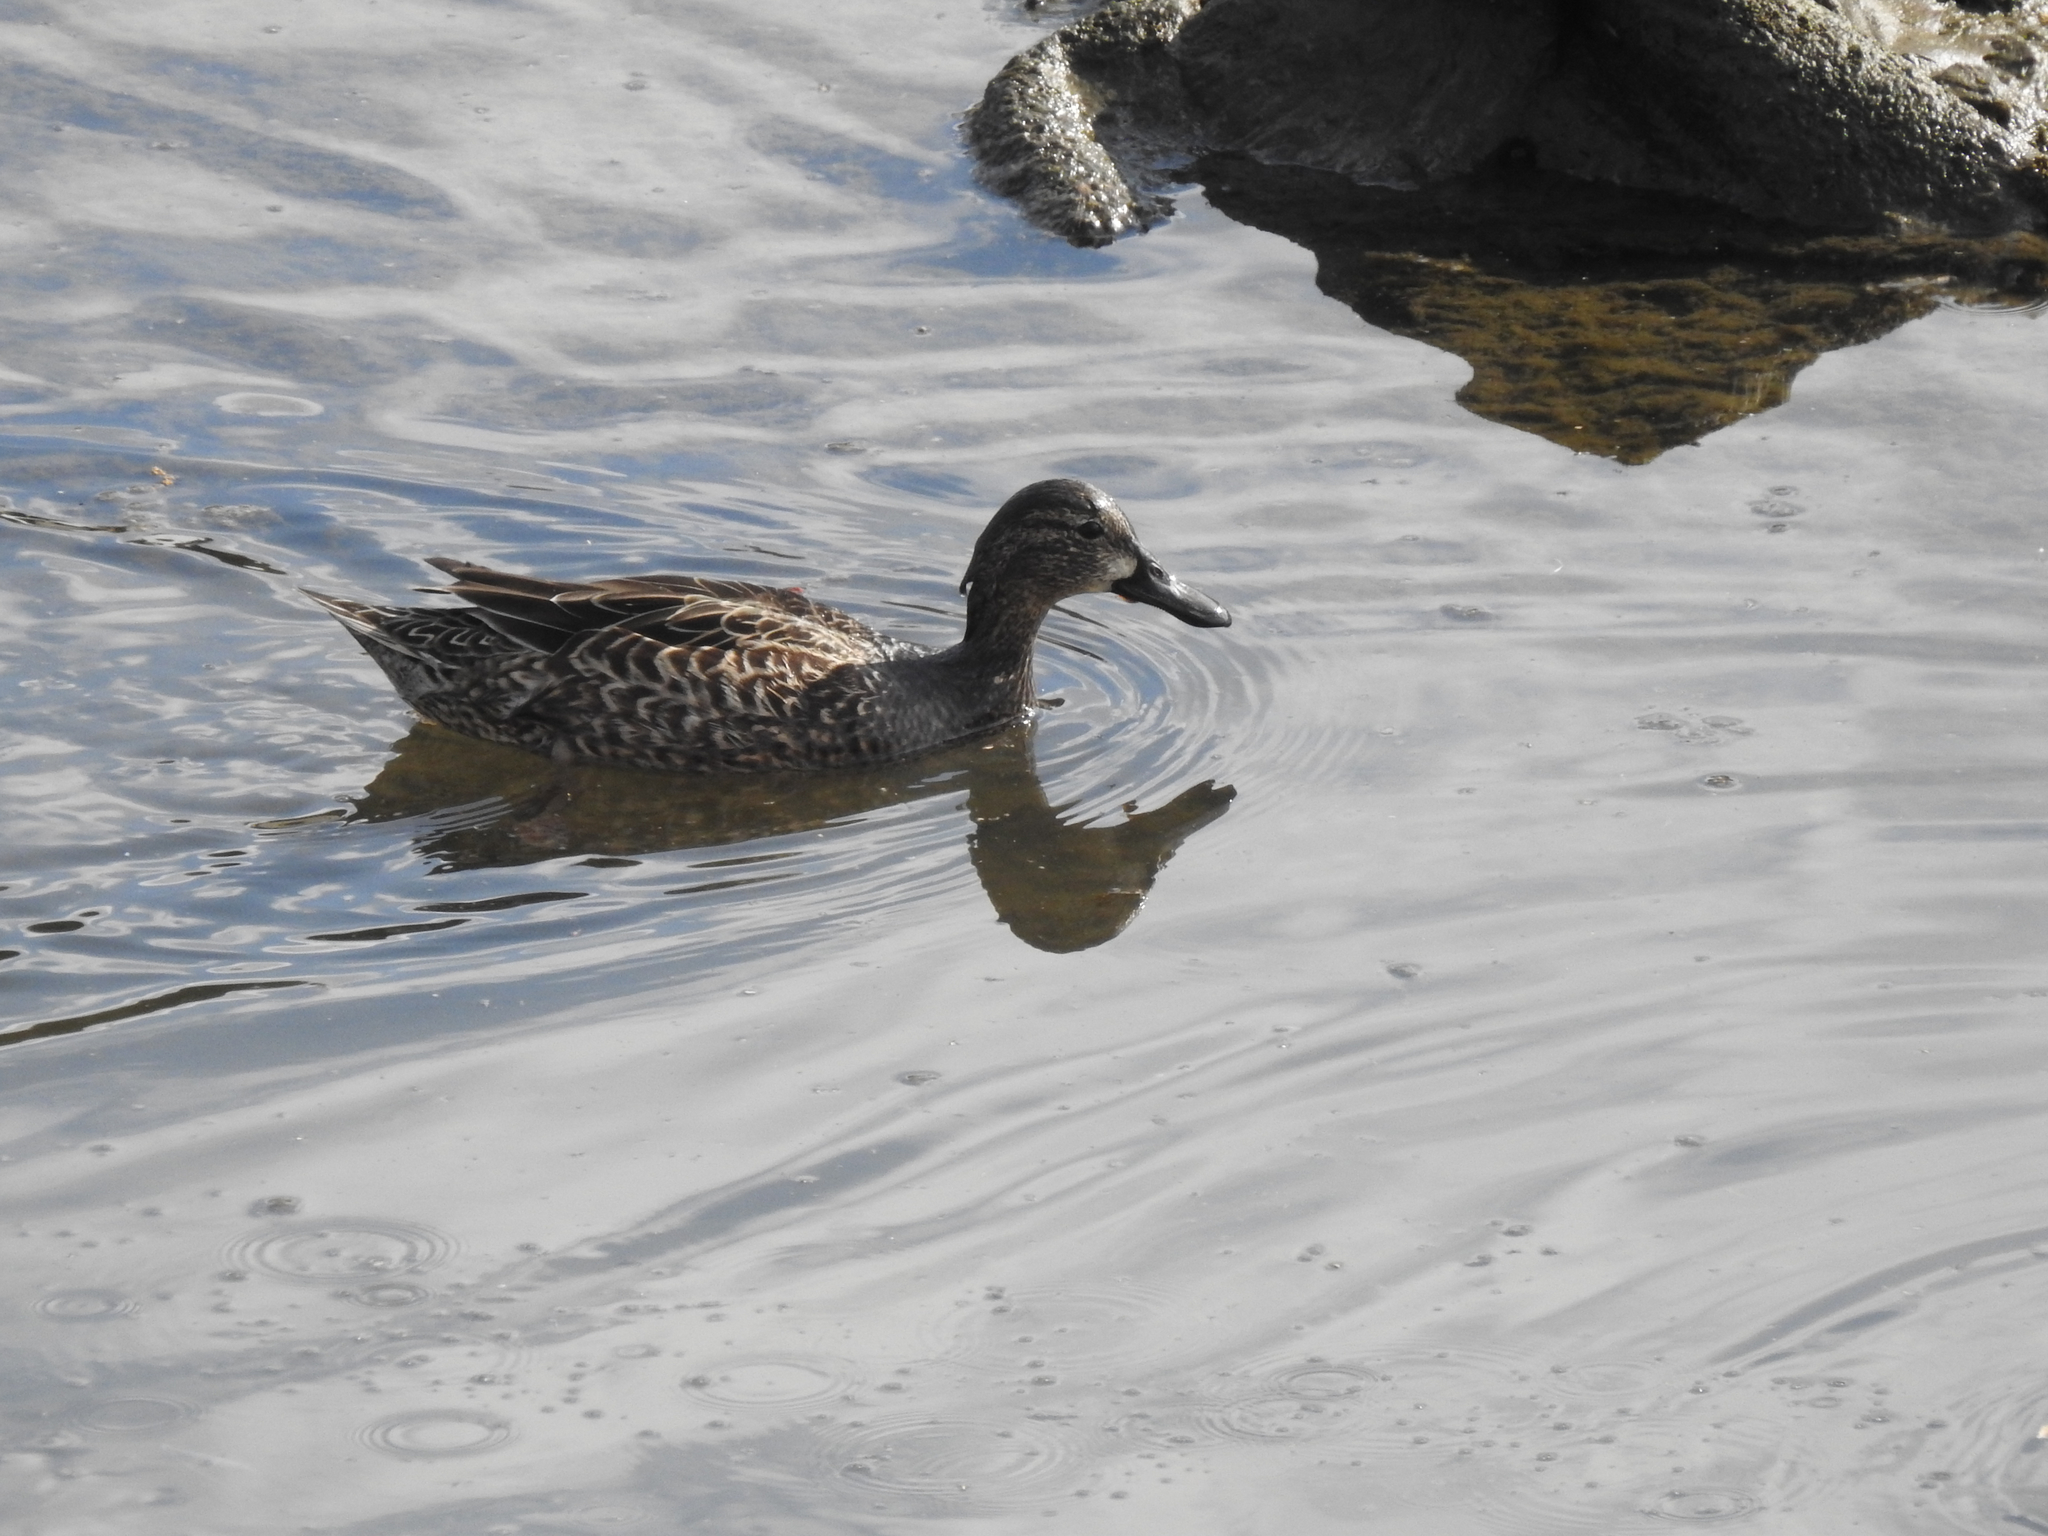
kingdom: Animalia
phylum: Chordata
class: Aves
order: Anseriformes
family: Anatidae
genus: Spatula
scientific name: Spatula discors
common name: Blue-winged teal
